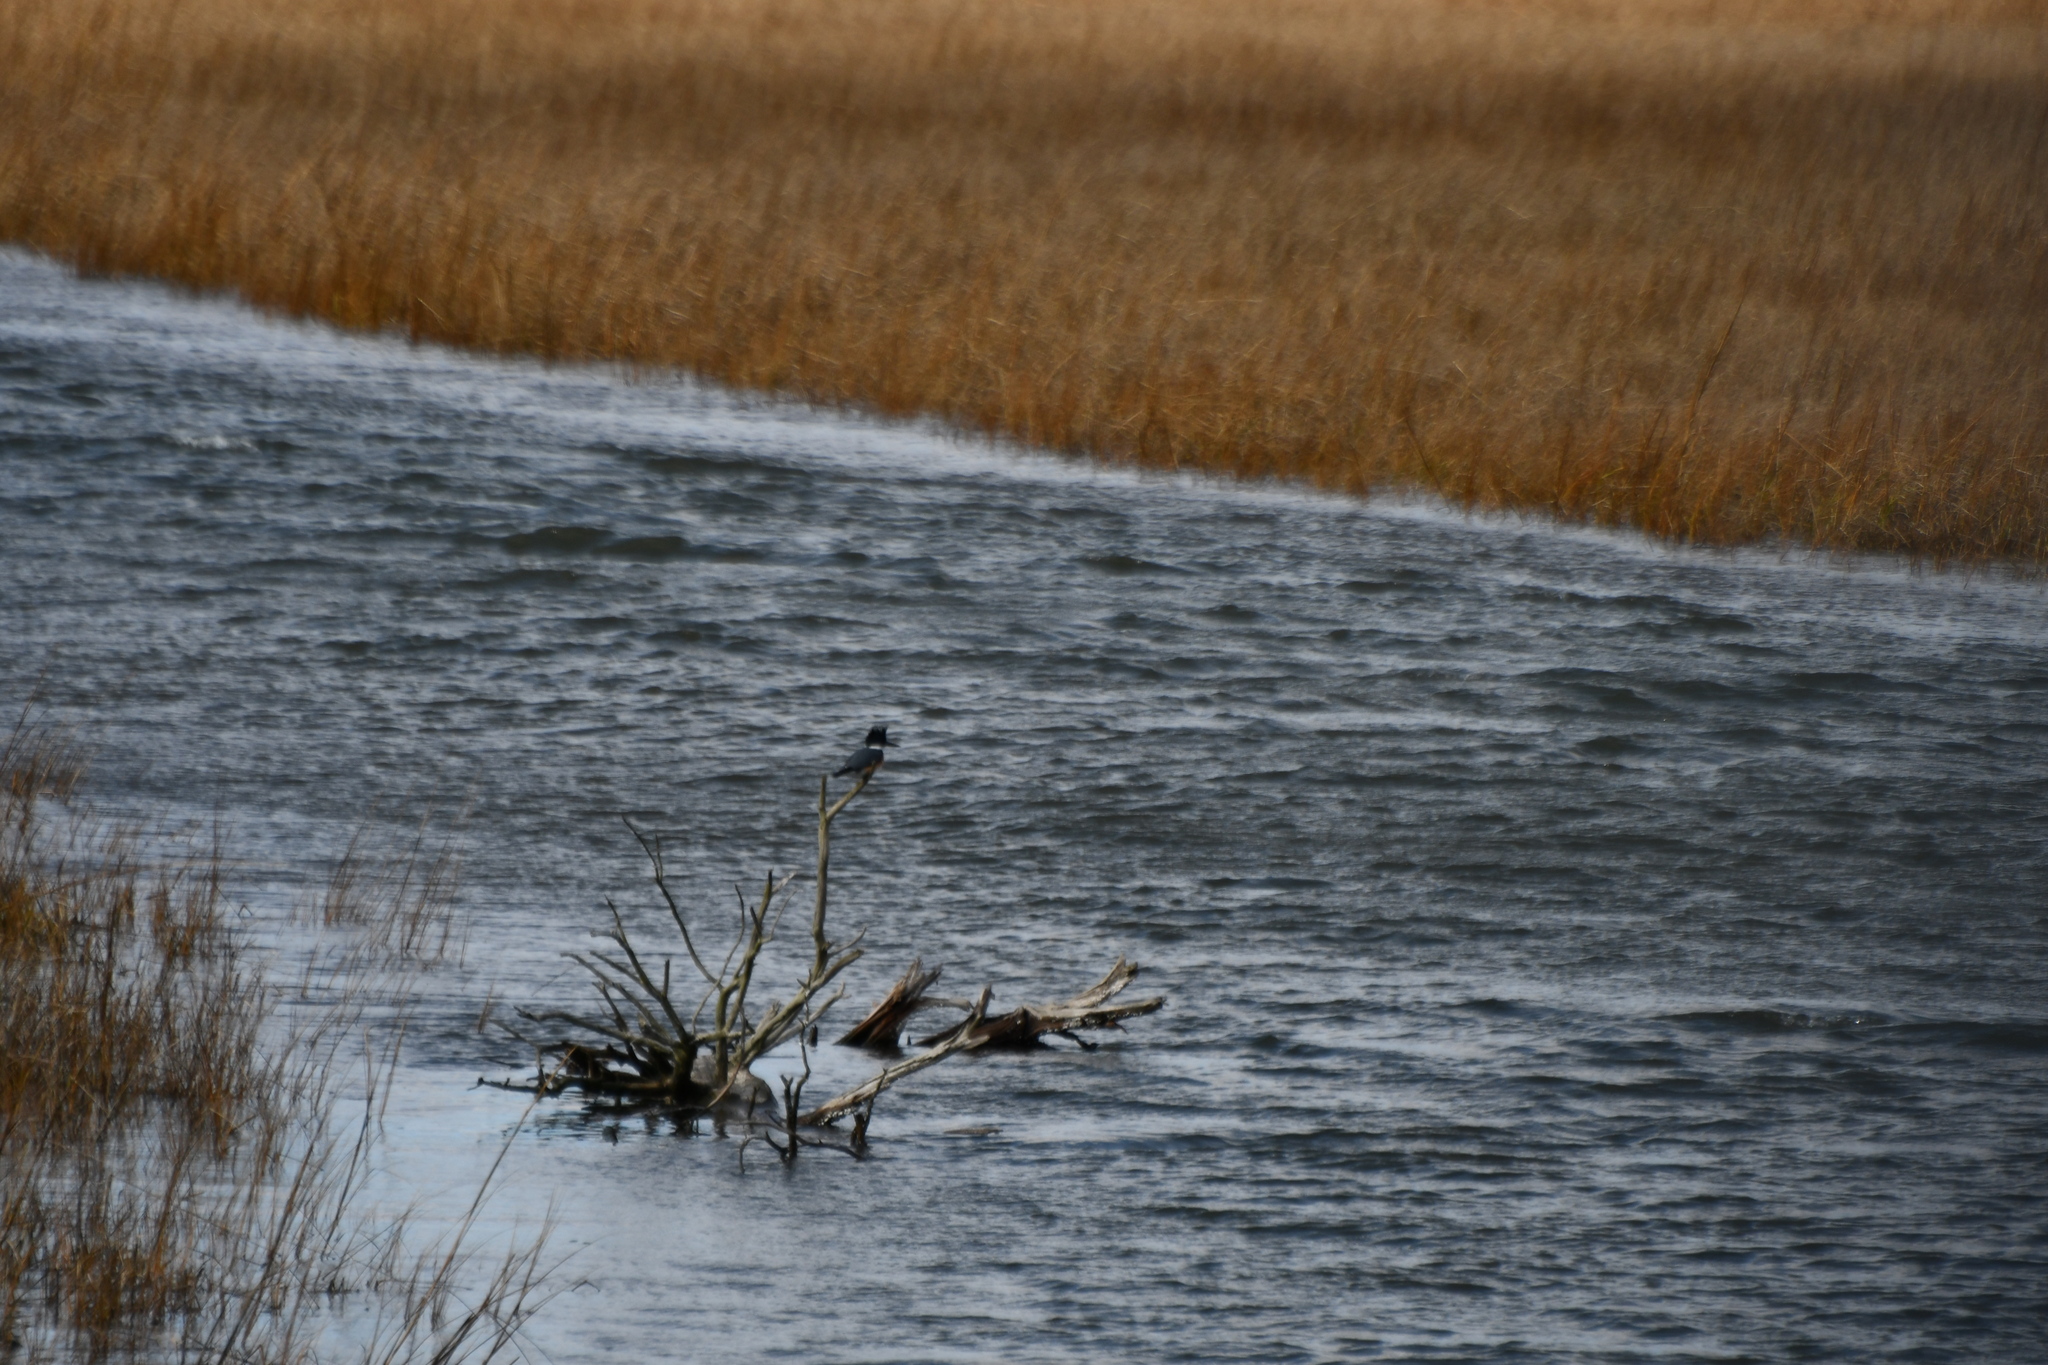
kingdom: Animalia
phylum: Chordata
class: Aves
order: Coraciiformes
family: Alcedinidae
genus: Megaceryle
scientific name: Megaceryle alcyon
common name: Belted kingfisher
